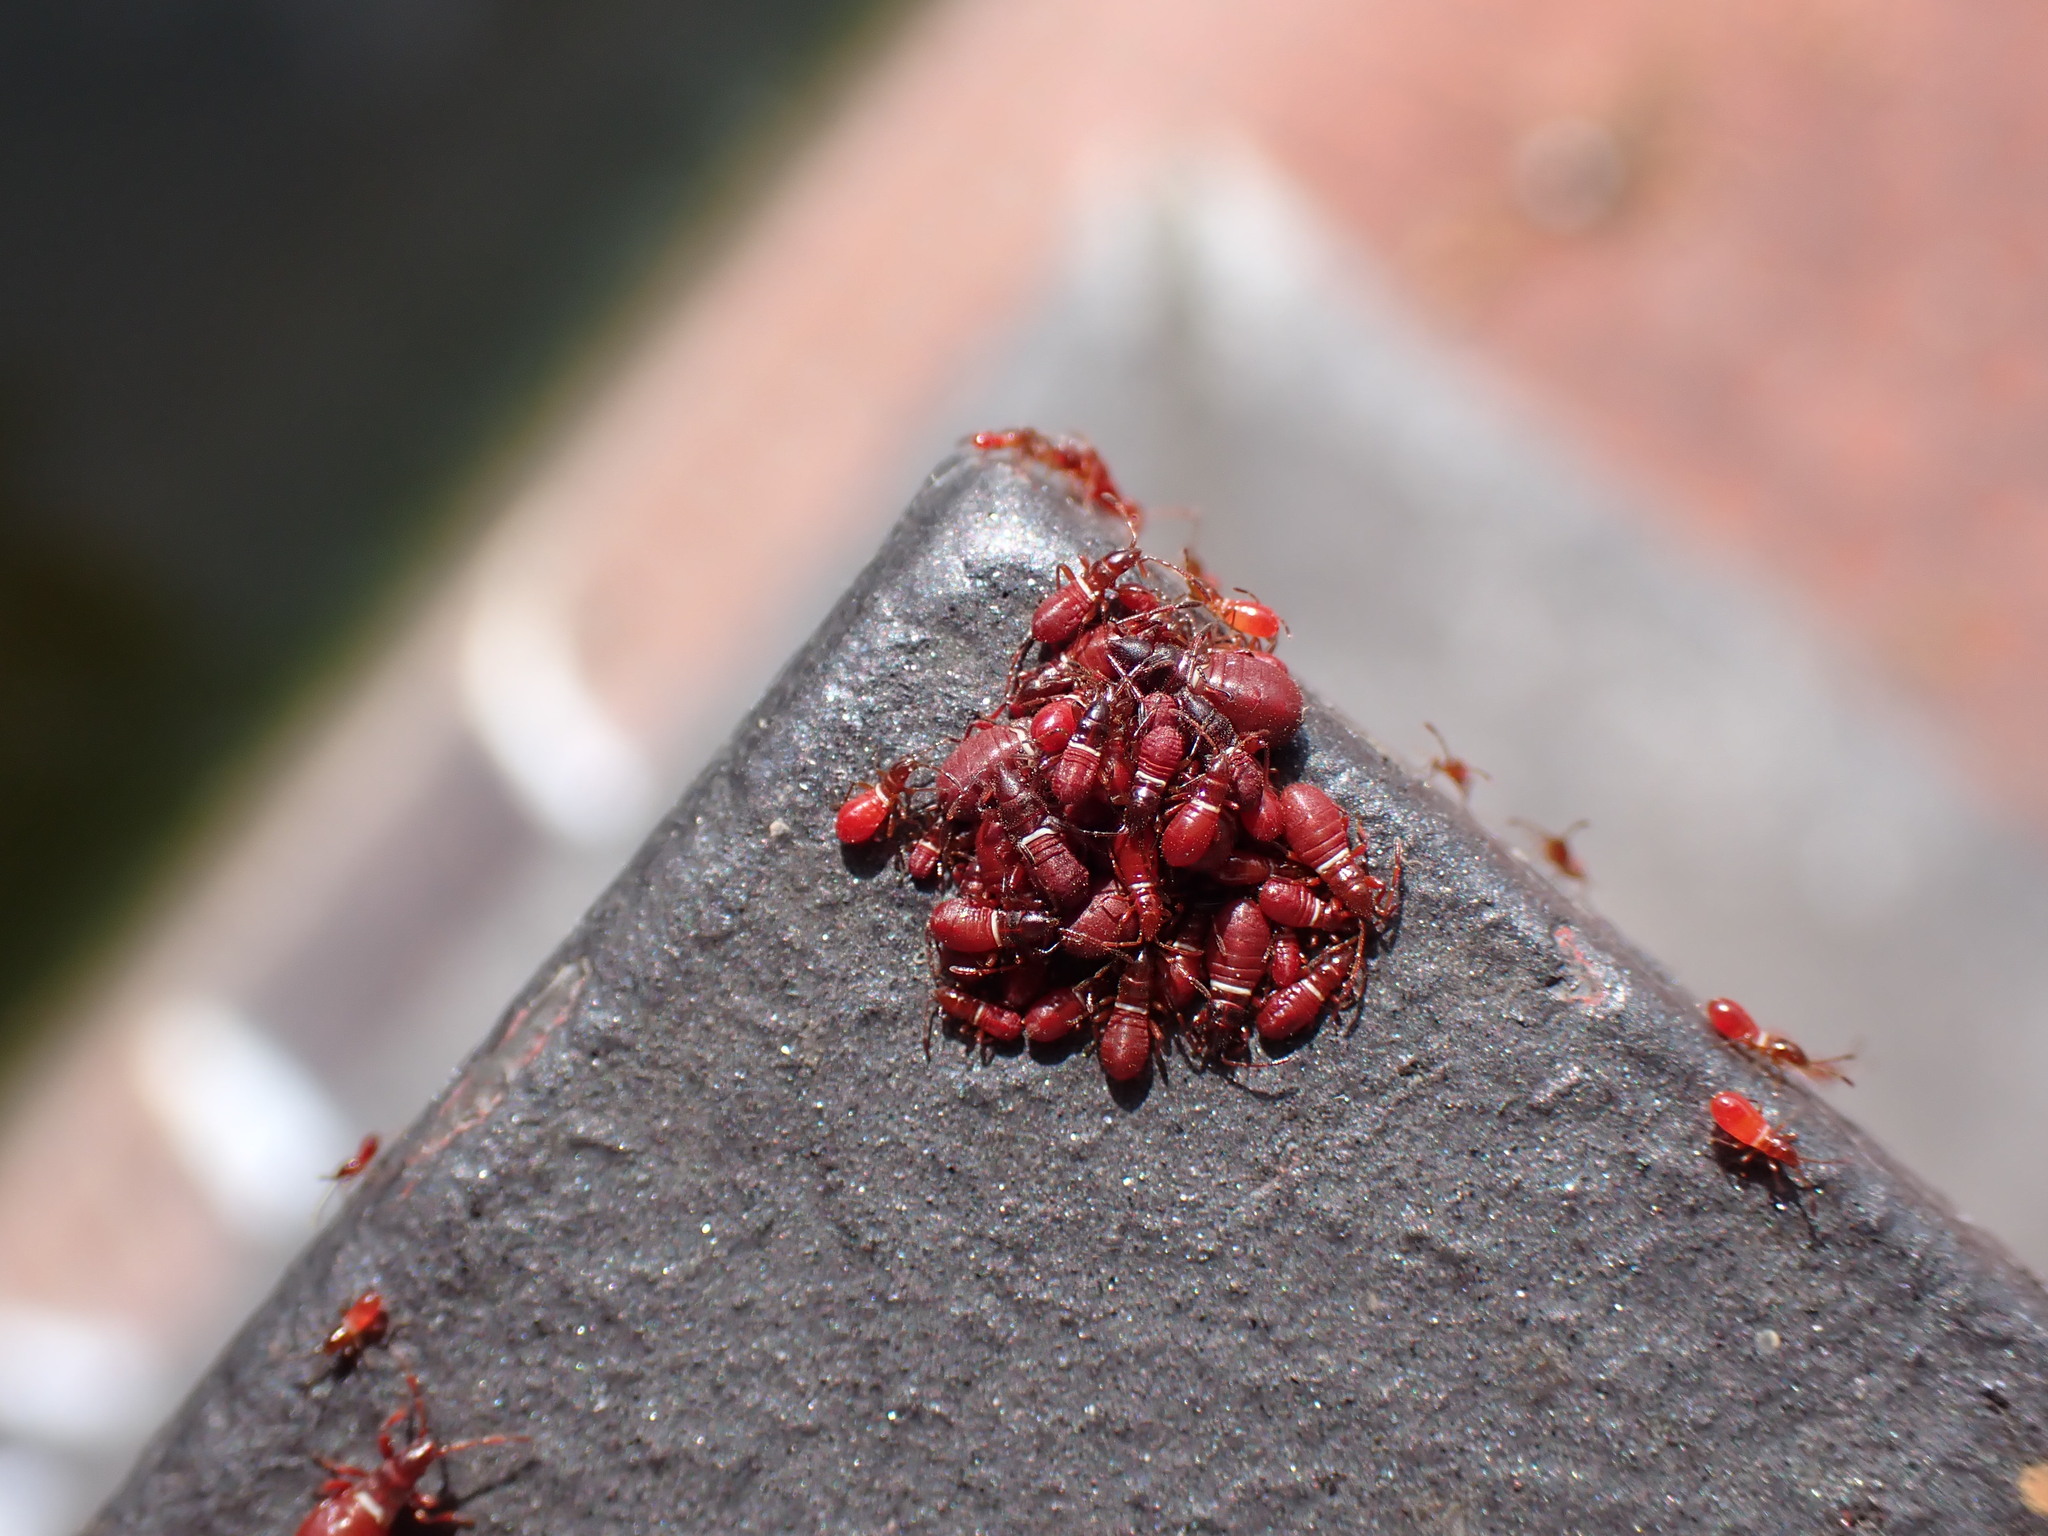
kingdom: Animalia
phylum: Arthropoda
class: Insecta
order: Hemiptera
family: Oxycarenidae
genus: Oxycarenus
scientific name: Oxycarenus lavaterae
